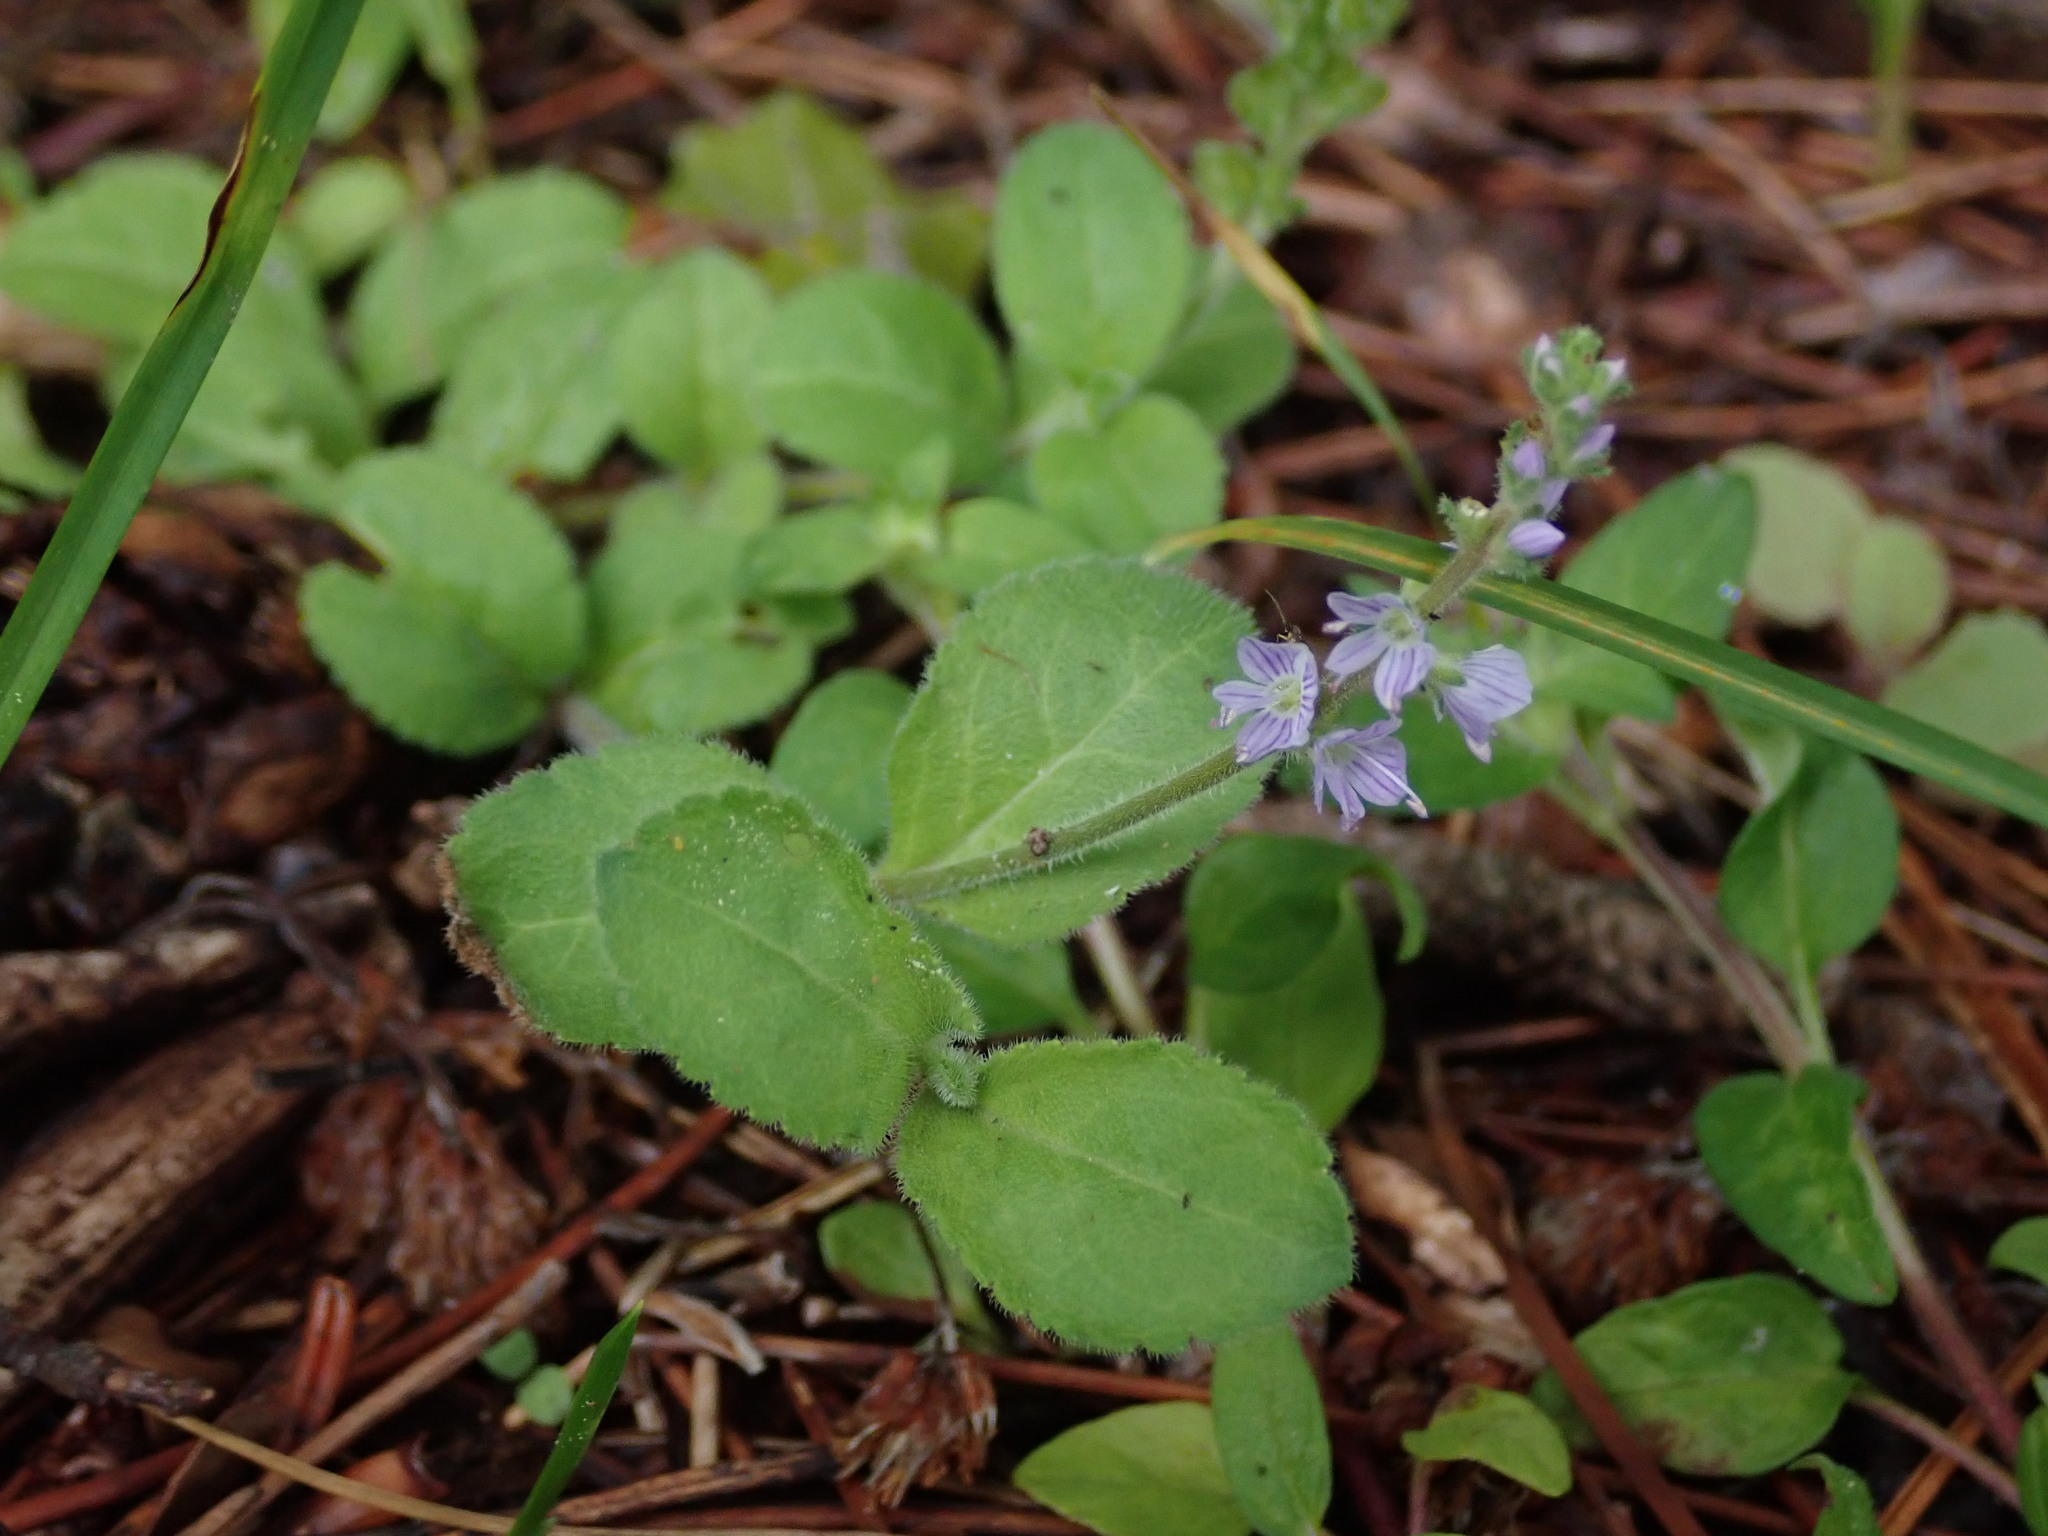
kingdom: Plantae
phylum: Tracheophyta
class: Magnoliopsida
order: Lamiales
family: Plantaginaceae
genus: Veronica
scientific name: Veronica officinalis
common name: Common speedwell
